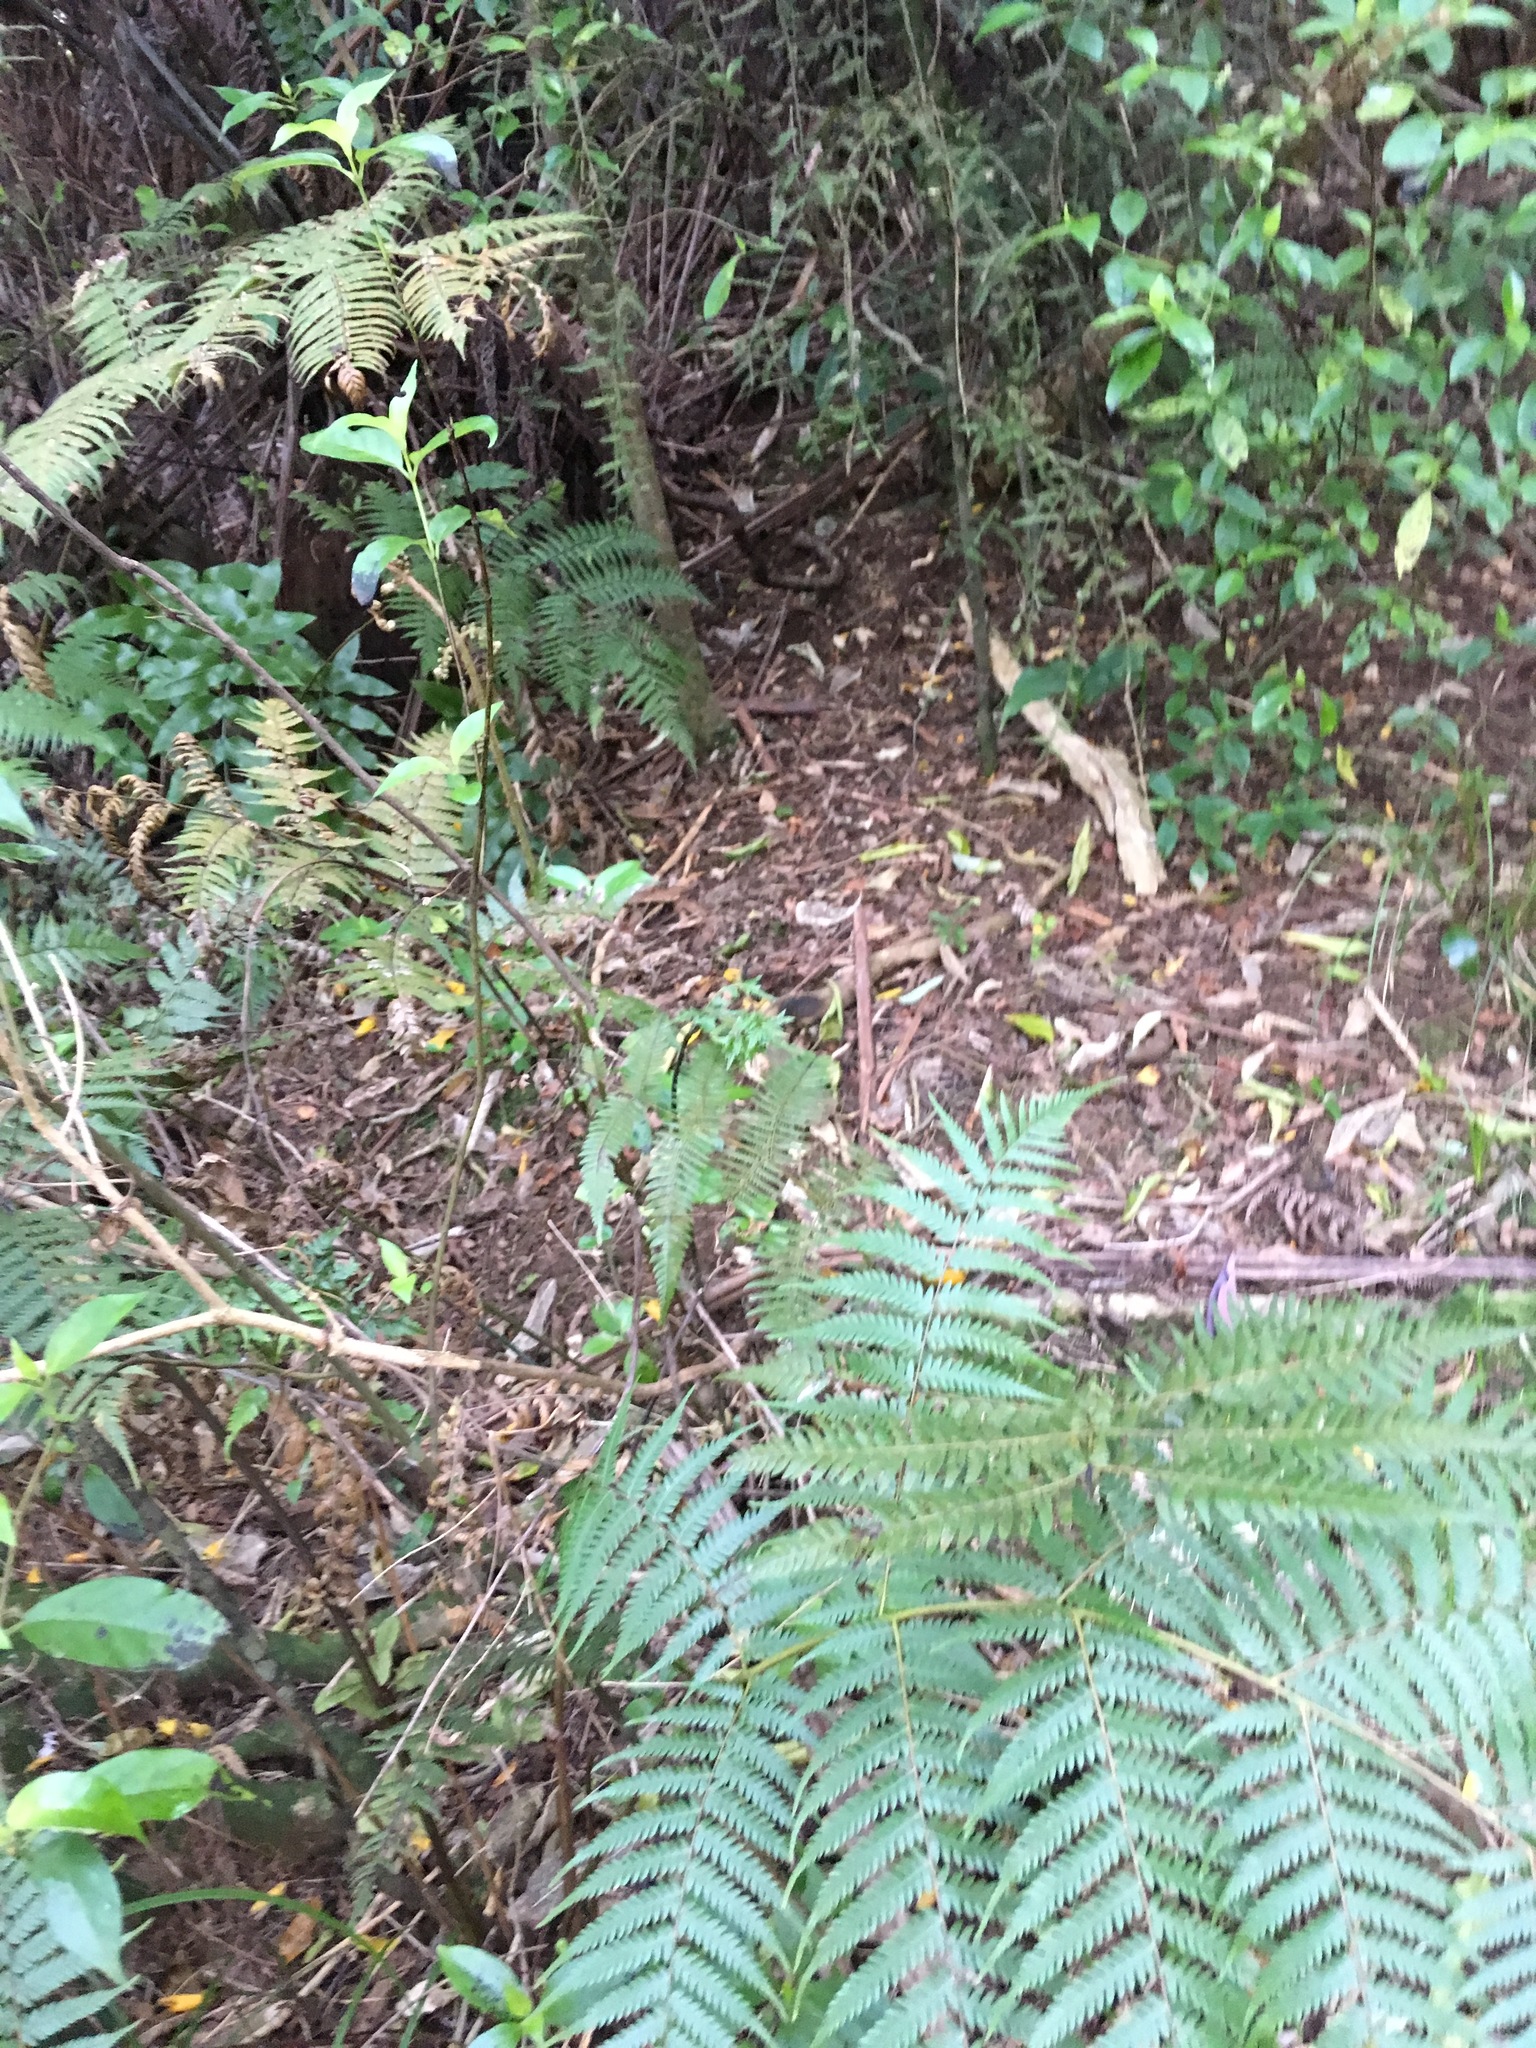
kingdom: Plantae
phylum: Tracheophyta
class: Magnoliopsida
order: Gentianales
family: Loganiaceae
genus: Geniostoma
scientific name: Geniostoma ligustrifolium
